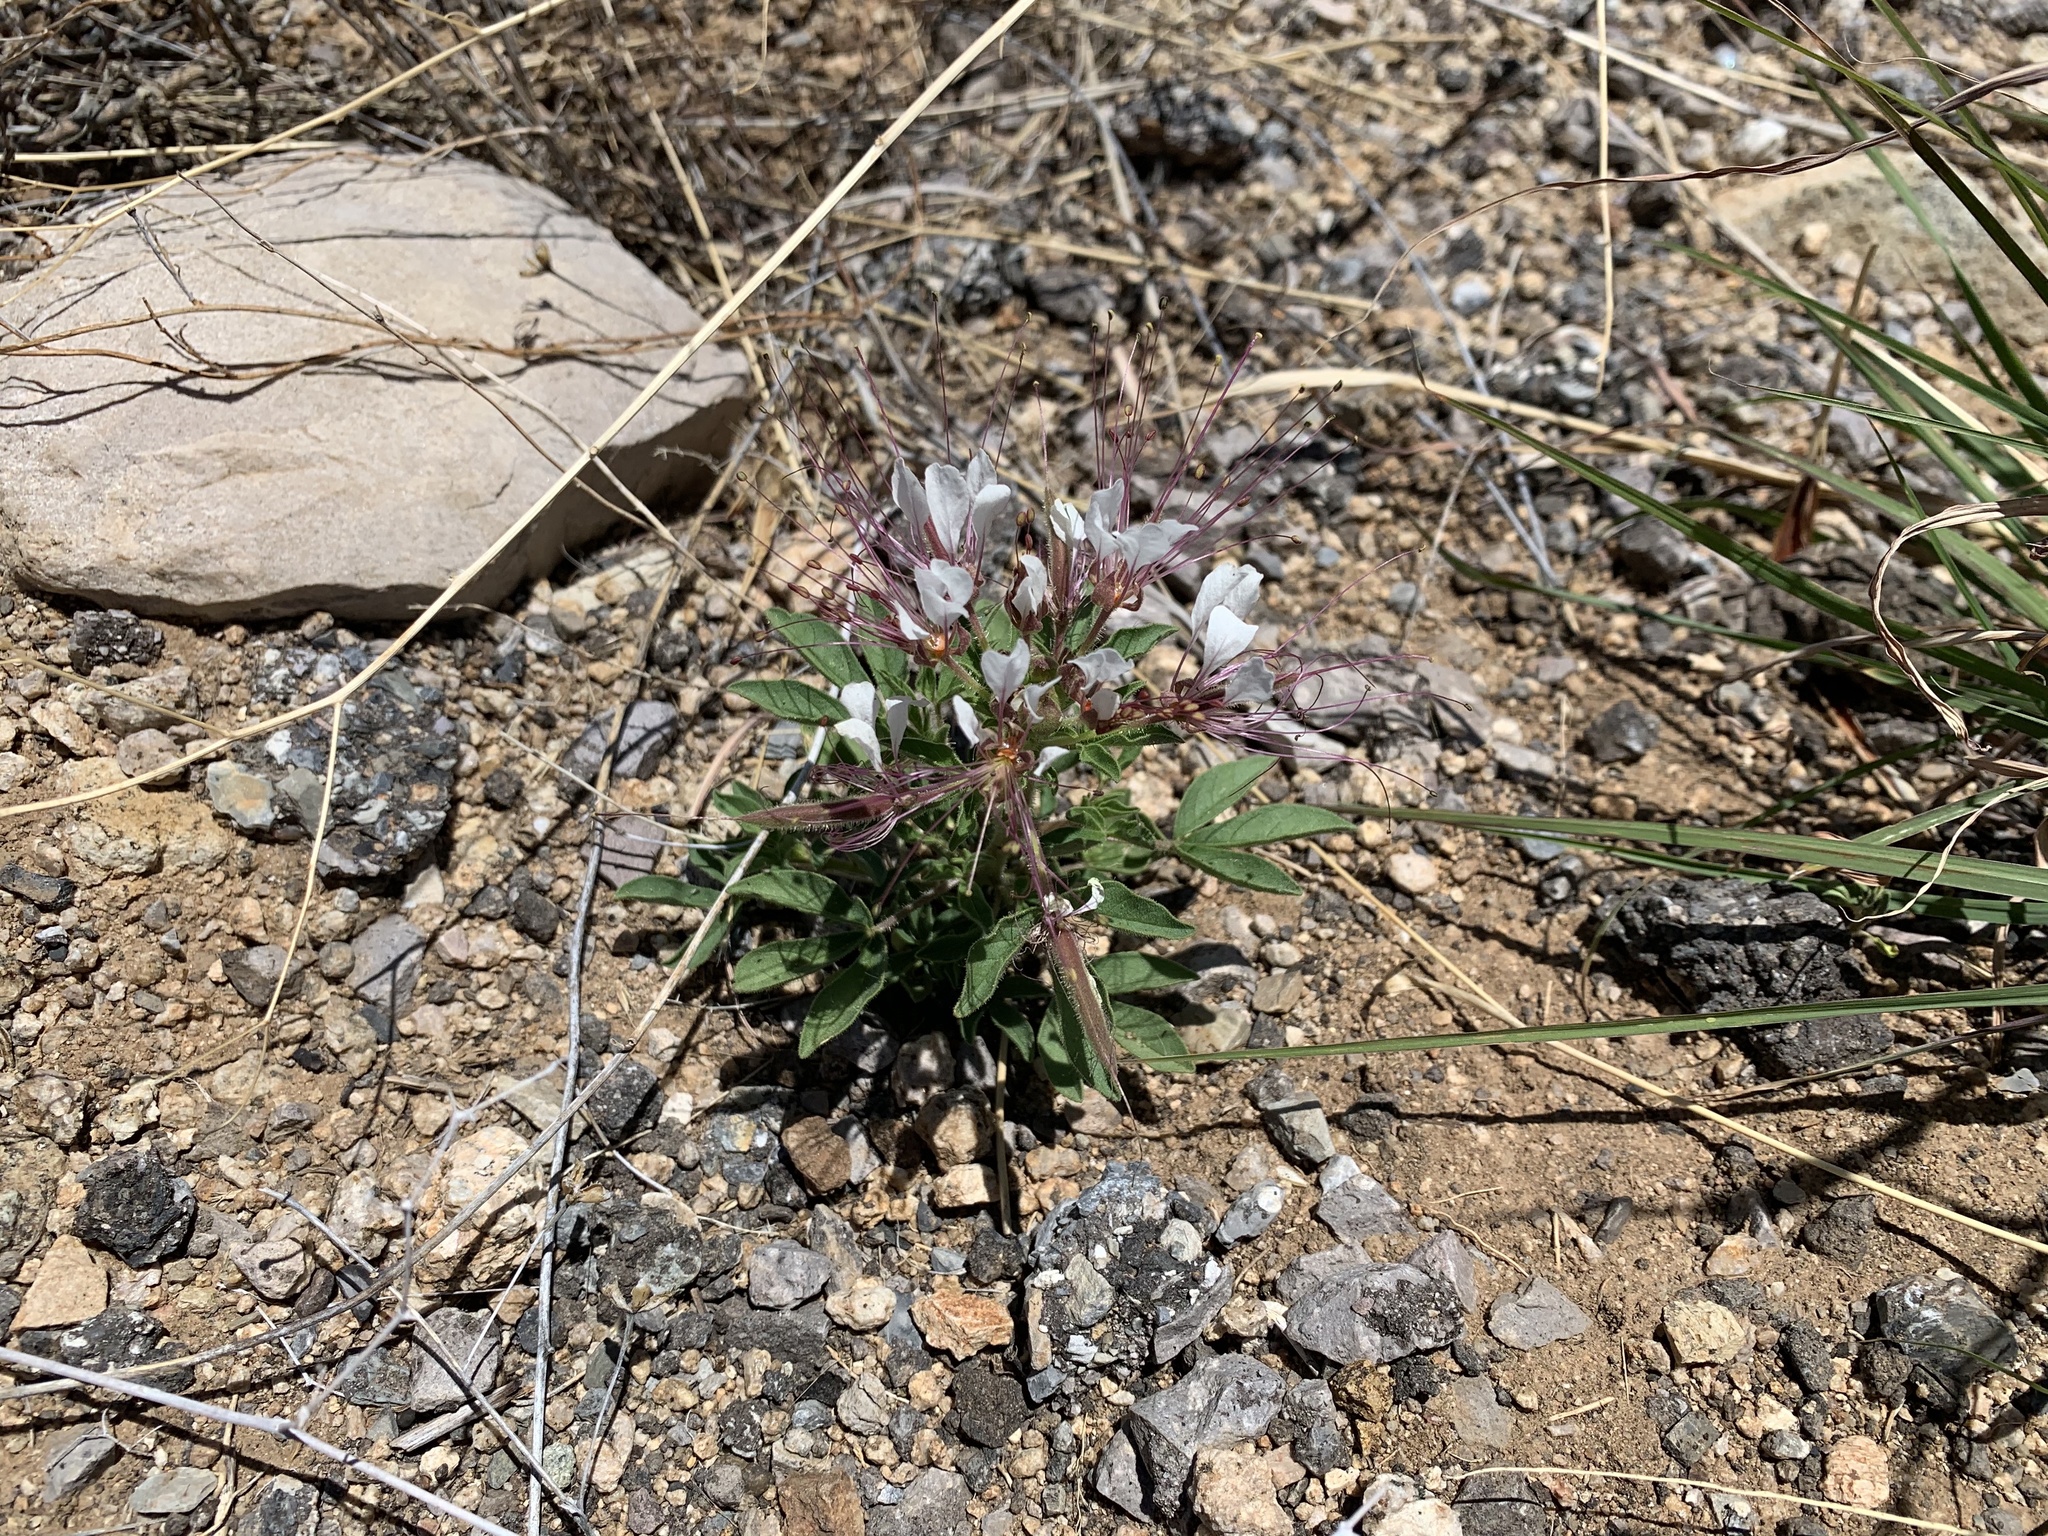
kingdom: Plantae
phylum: Tracheophyta
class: Magnoliopsida
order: Brassicales
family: Cleomaceae
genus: Polanisia
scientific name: Polanisia dodecandra
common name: Clammyweed
